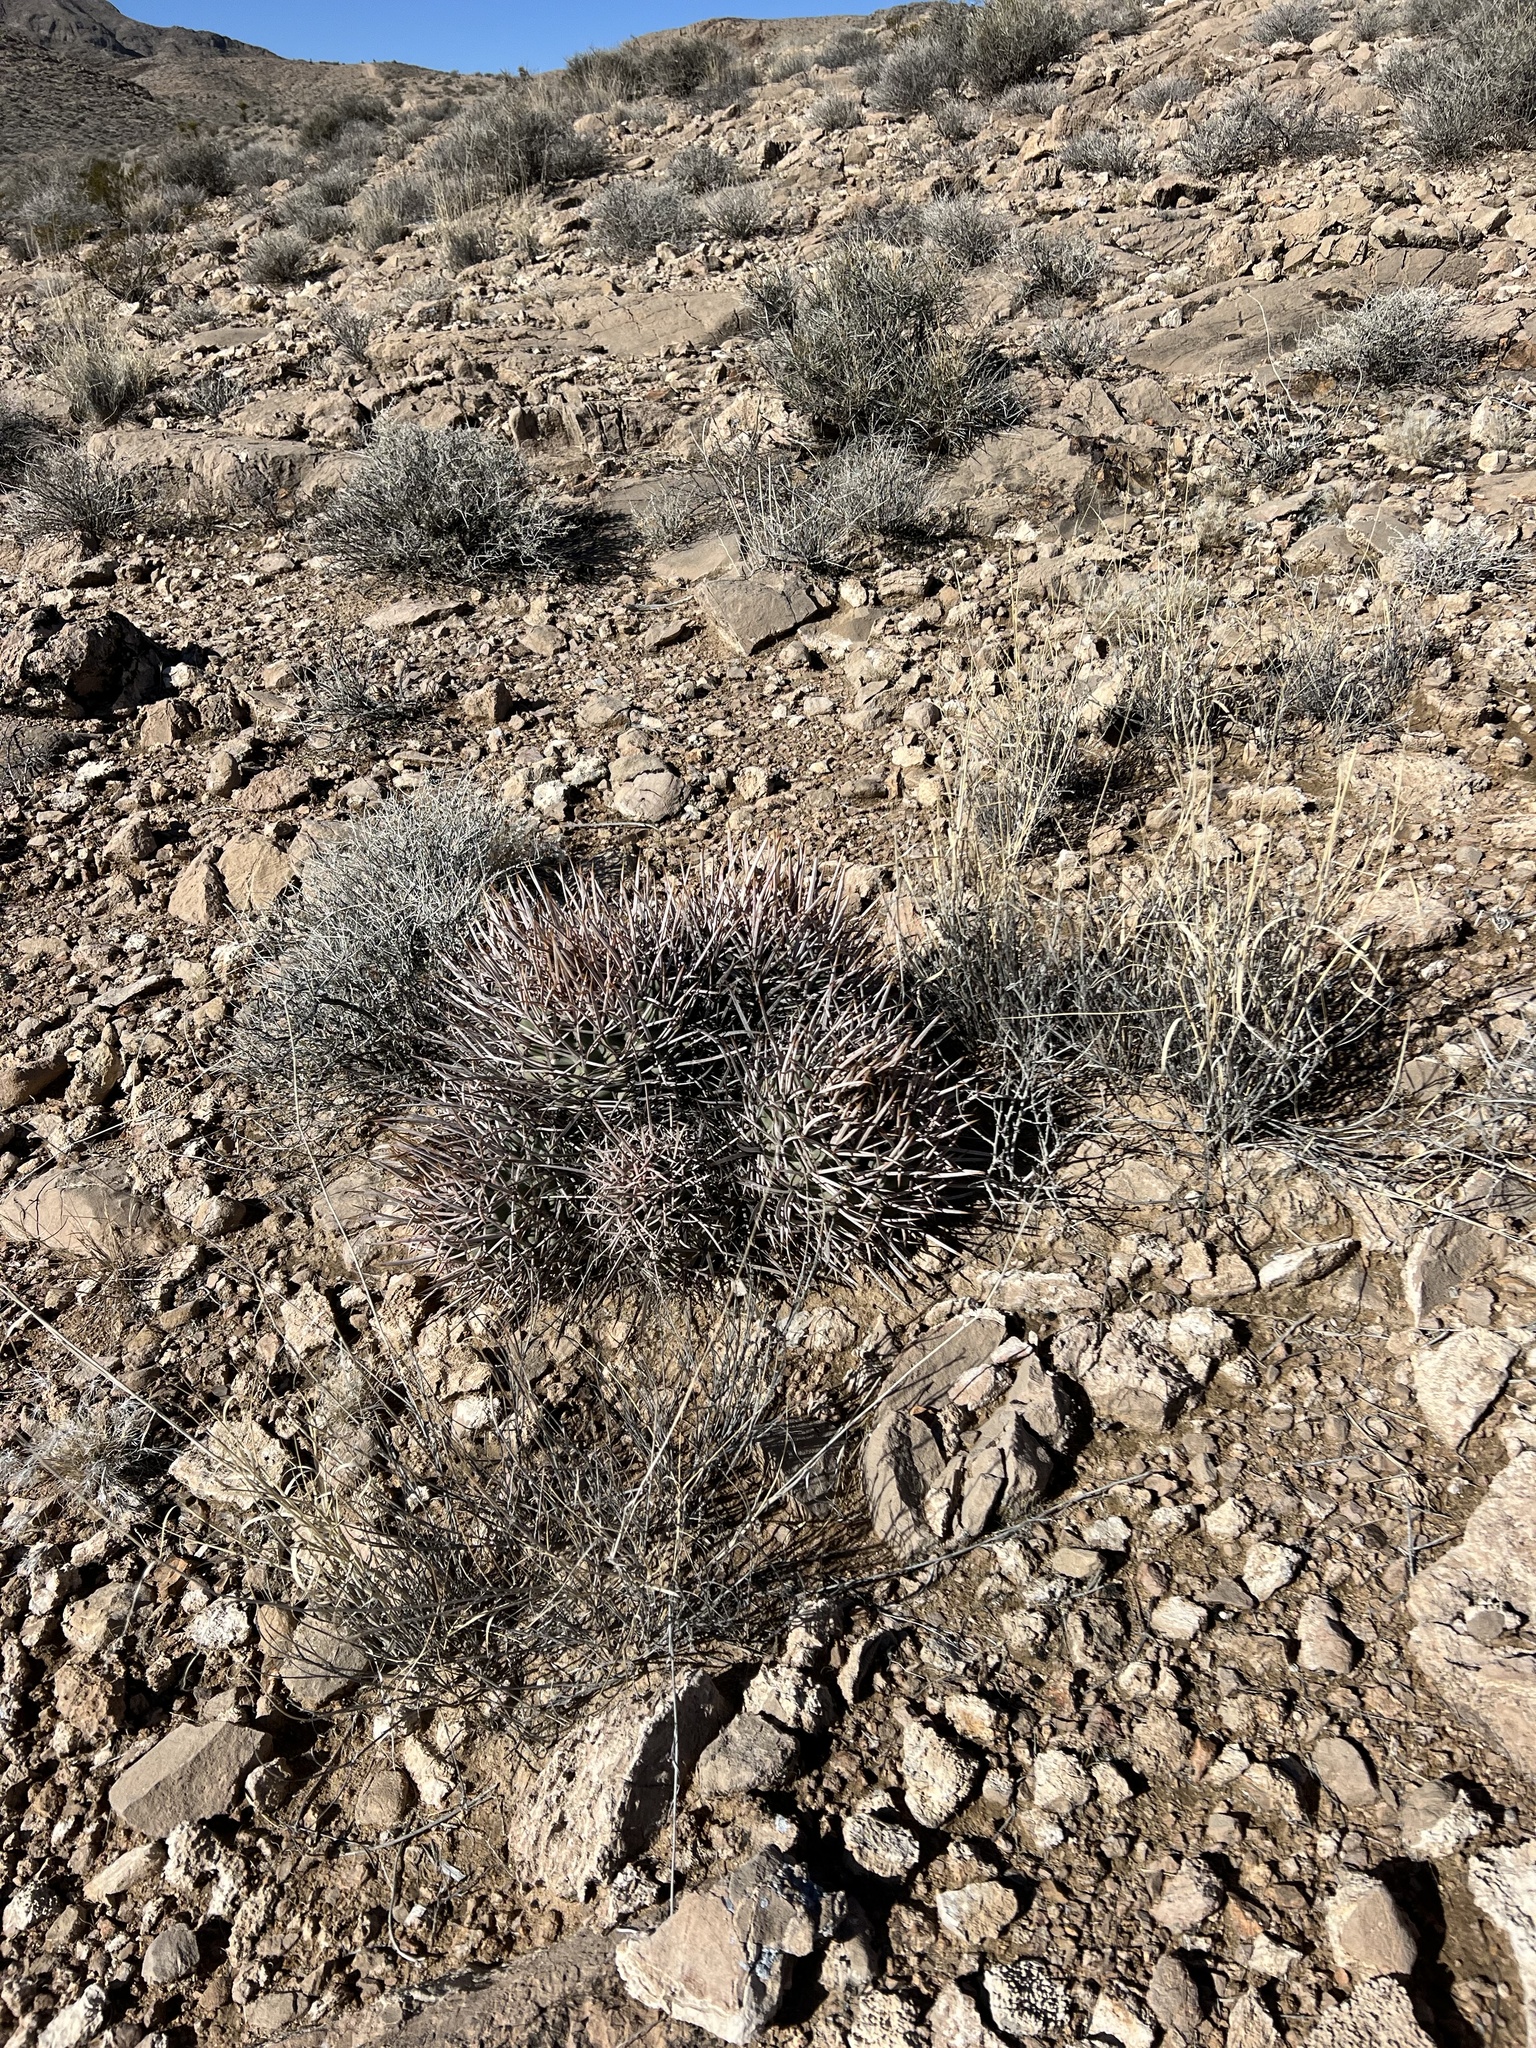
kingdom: Plantae
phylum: Tracheophyta
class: Magnoliopsida
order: Caryophyllales
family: Cactaceae
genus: Echinocactus
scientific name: Echinocactus polycephalus
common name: Cottontop cactus
